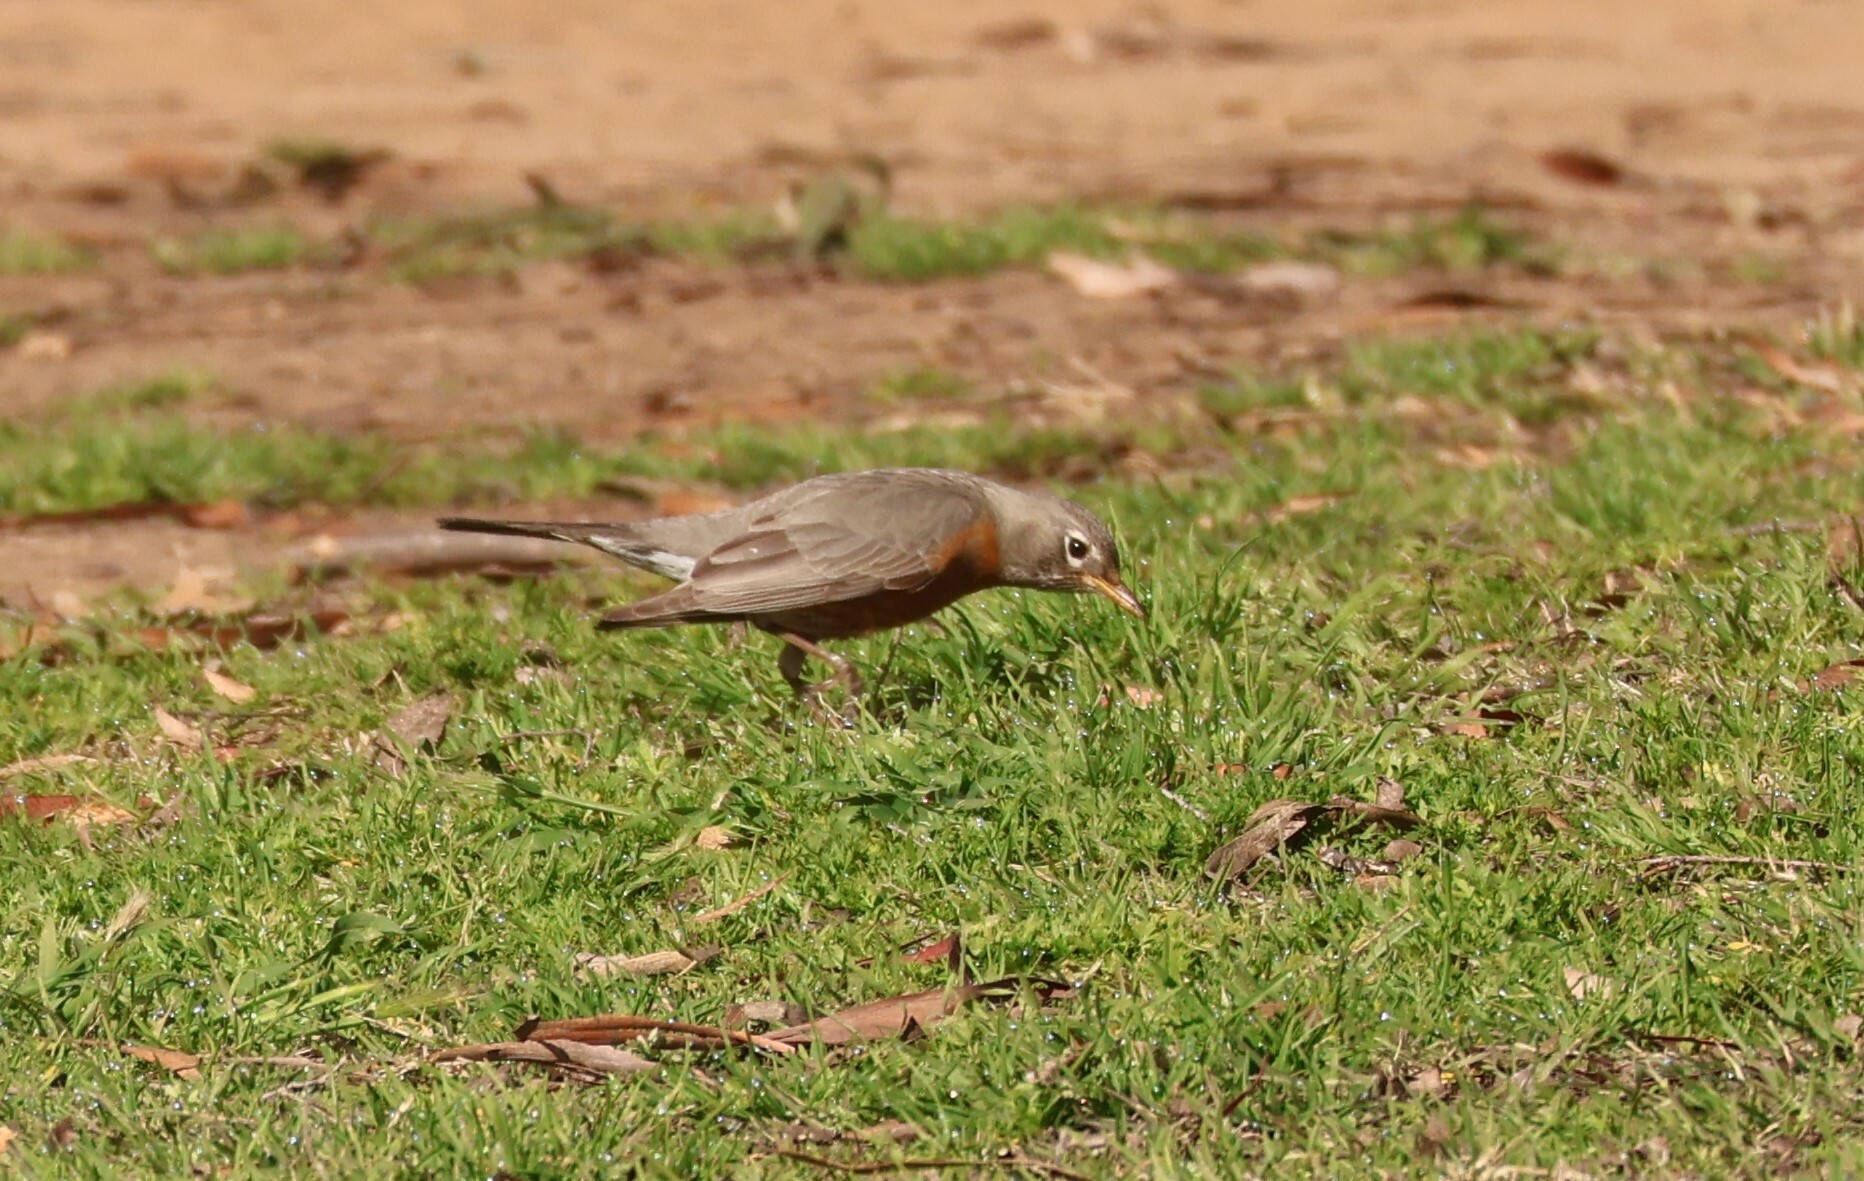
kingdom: Animalia
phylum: Chordata
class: Aves
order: Passeriformes
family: Turdidae
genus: Turdus
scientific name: Turdus migratorius
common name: American robin
